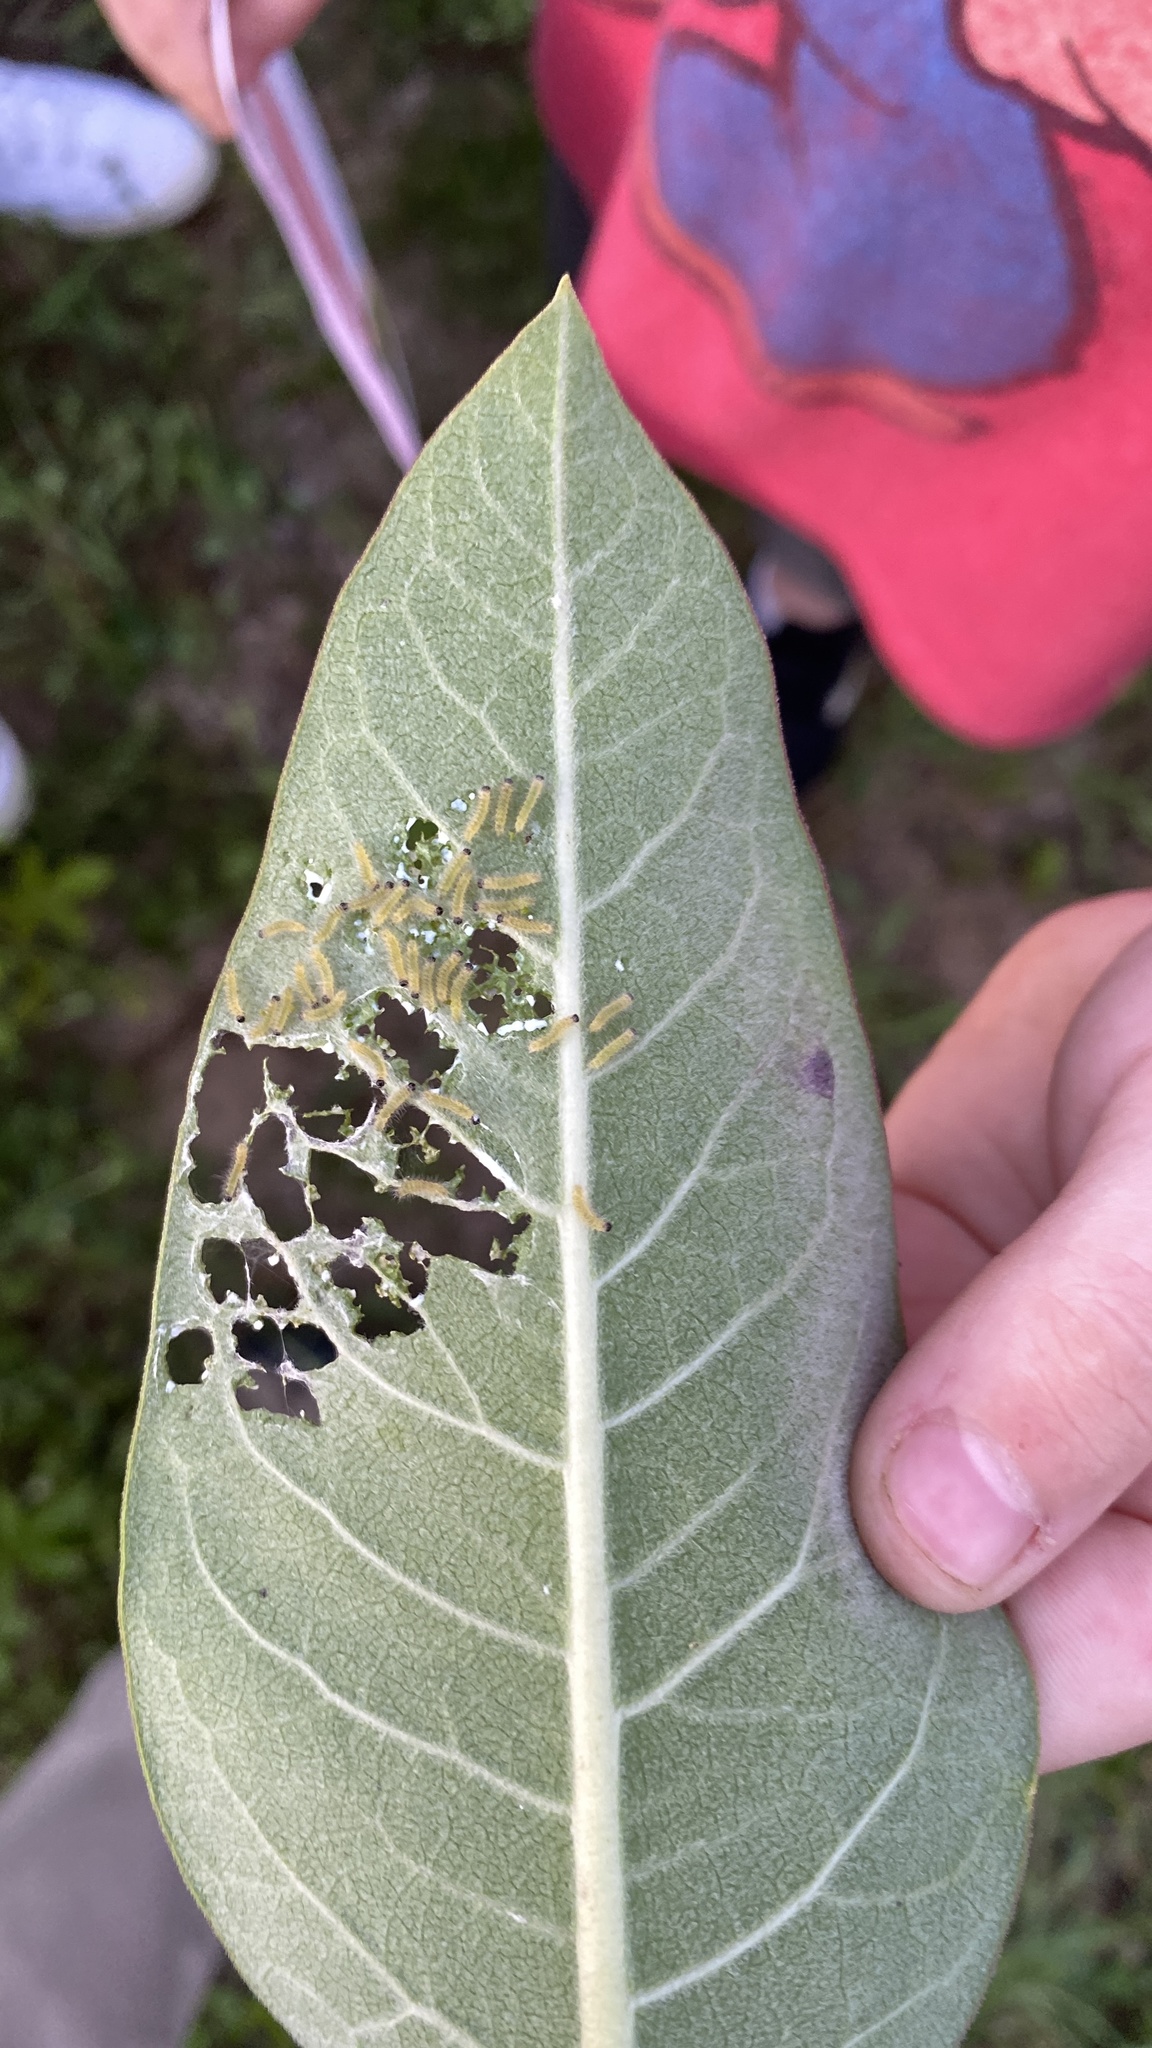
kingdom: Animalia
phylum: Arthropoda
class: Insecta
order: Lepidoptera
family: Erebidae
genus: Euchaetes
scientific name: Euchaetes egle
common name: Milkweed tussock moth
